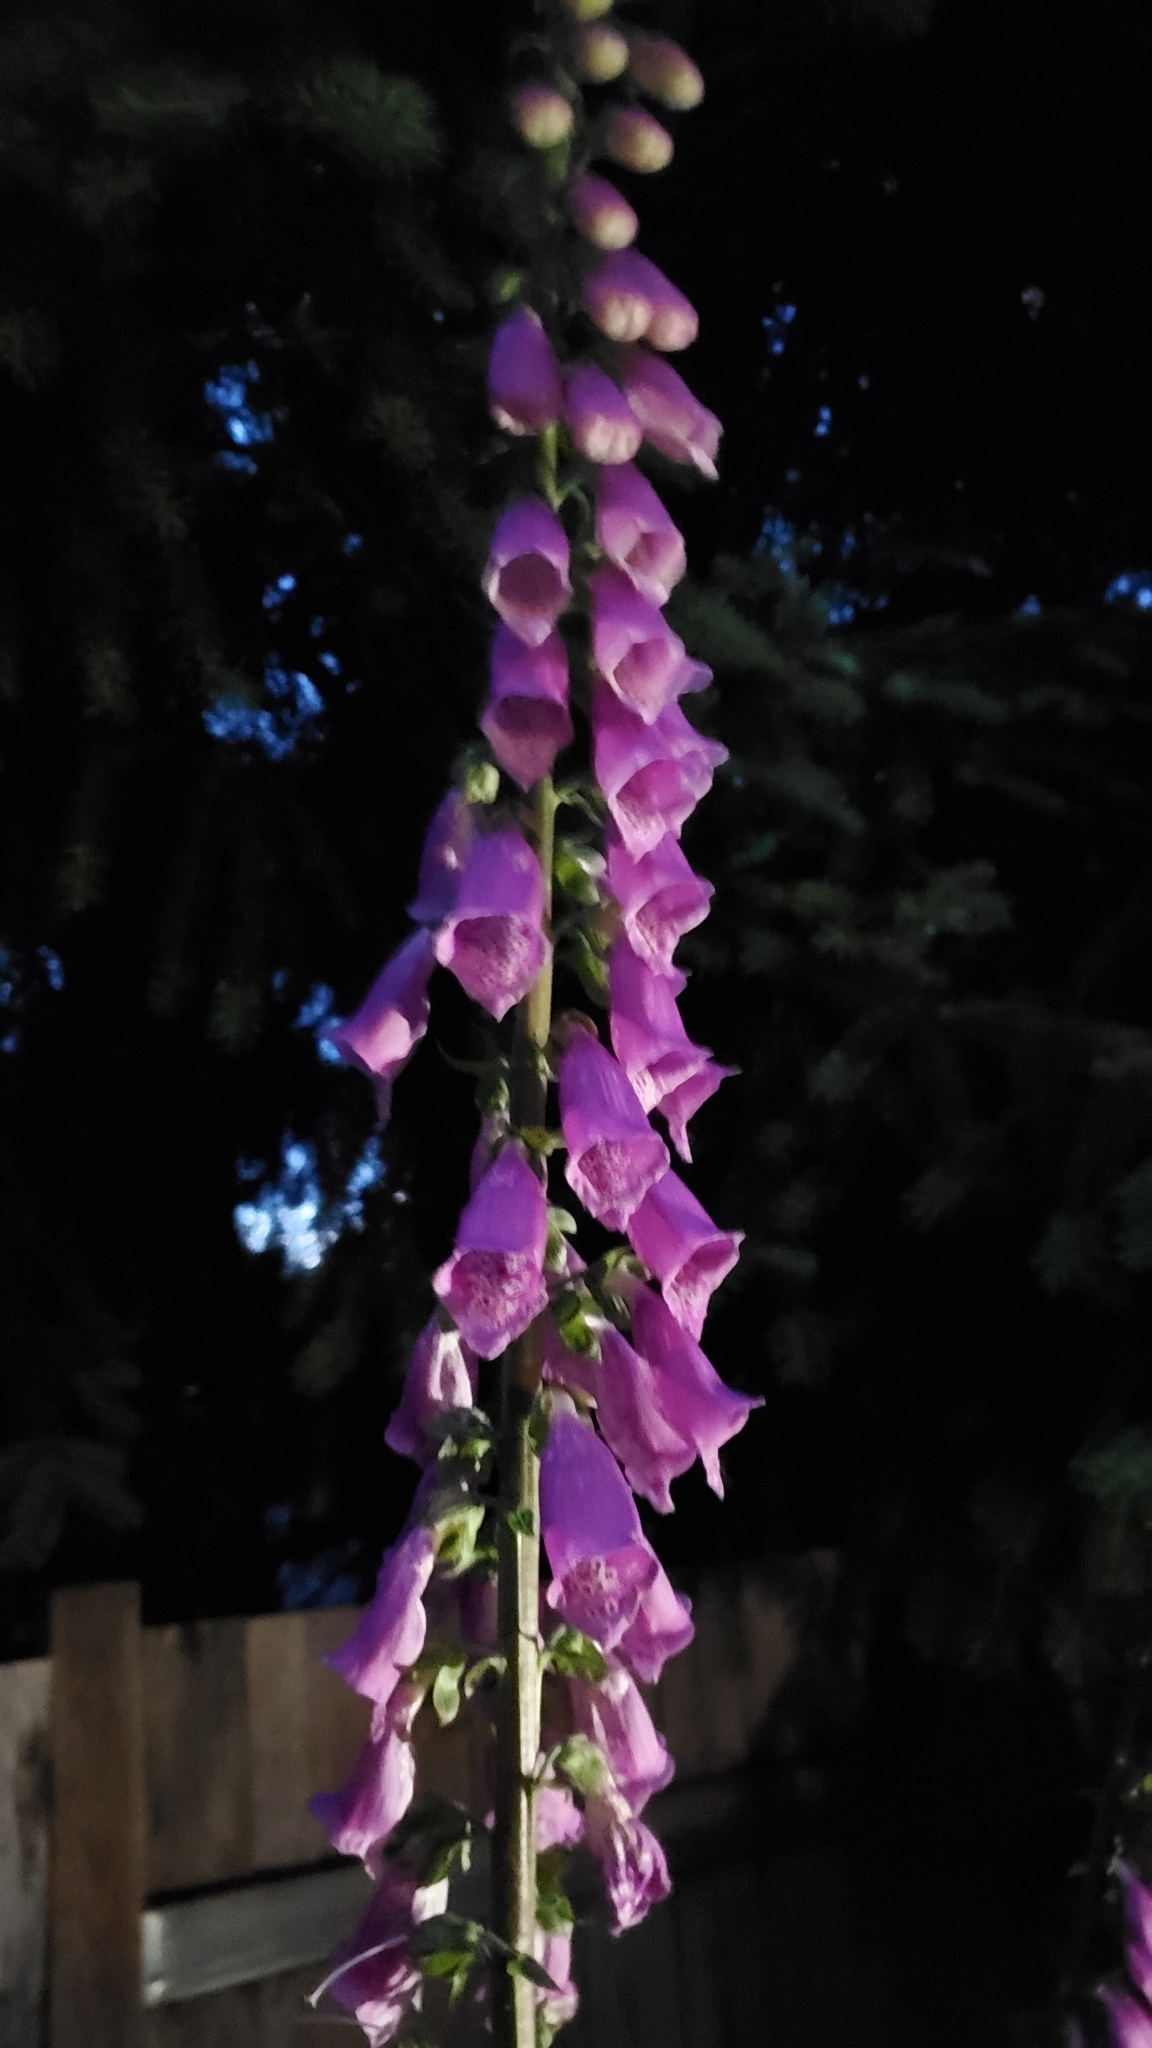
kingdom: Plantae
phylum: Tracheophyta
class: Magnoliopsida
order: Lamiales
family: Plantaginaceae
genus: Digitalis
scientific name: Digitalis purpurea
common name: Foxglove
